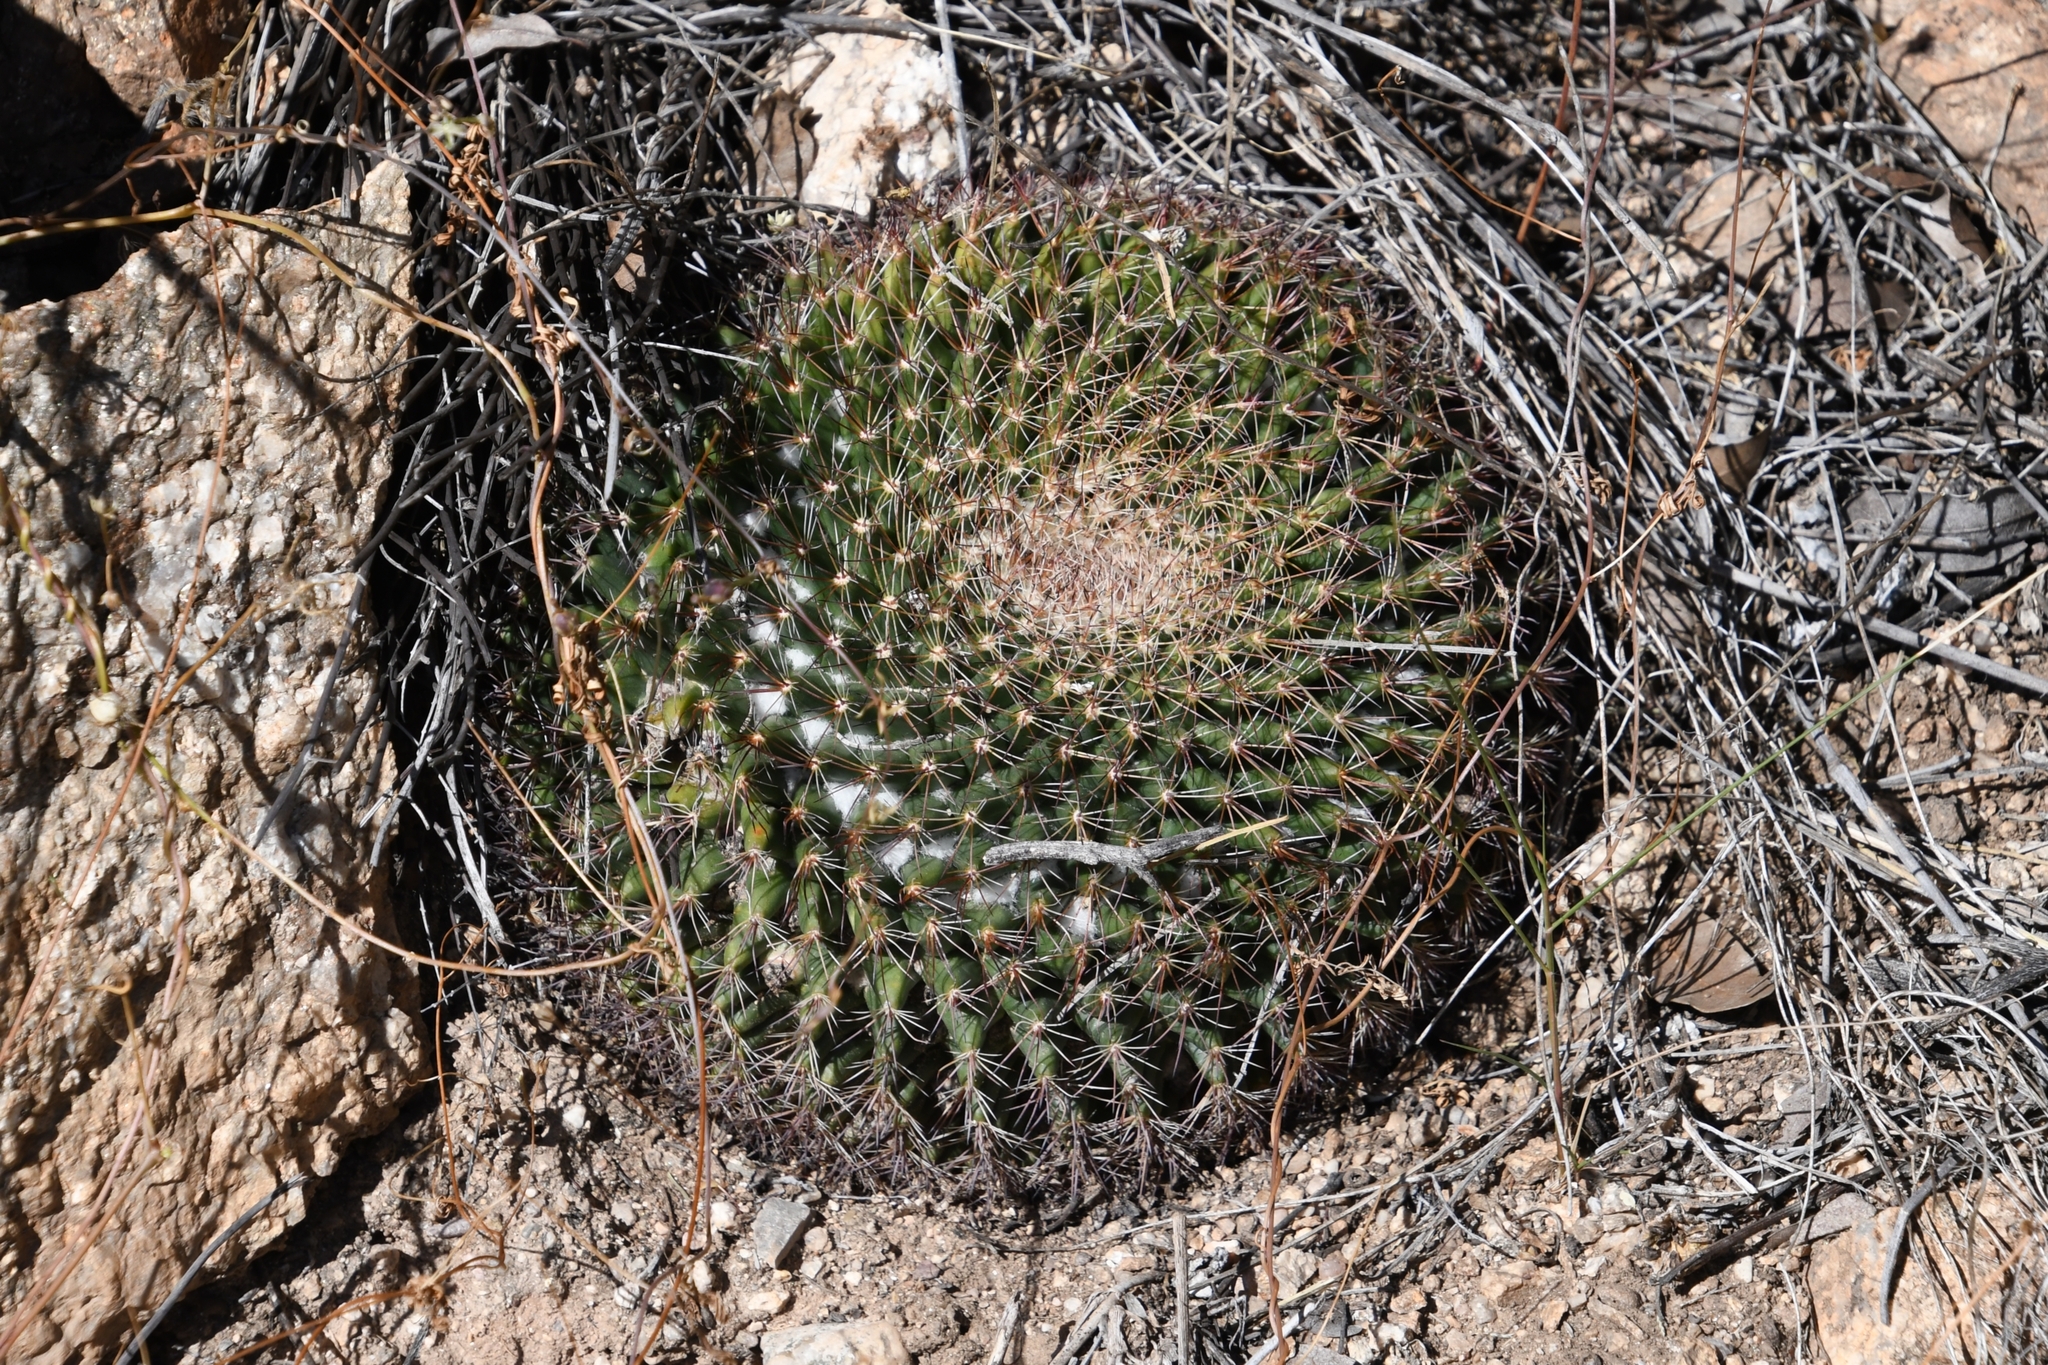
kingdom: Plantae
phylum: Tracheophyta
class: Magnoliopsida
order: Caryophyllales
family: Cactaceae
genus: Mammillaria
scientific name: Mammillaria heyderi
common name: Little nipple cactus
